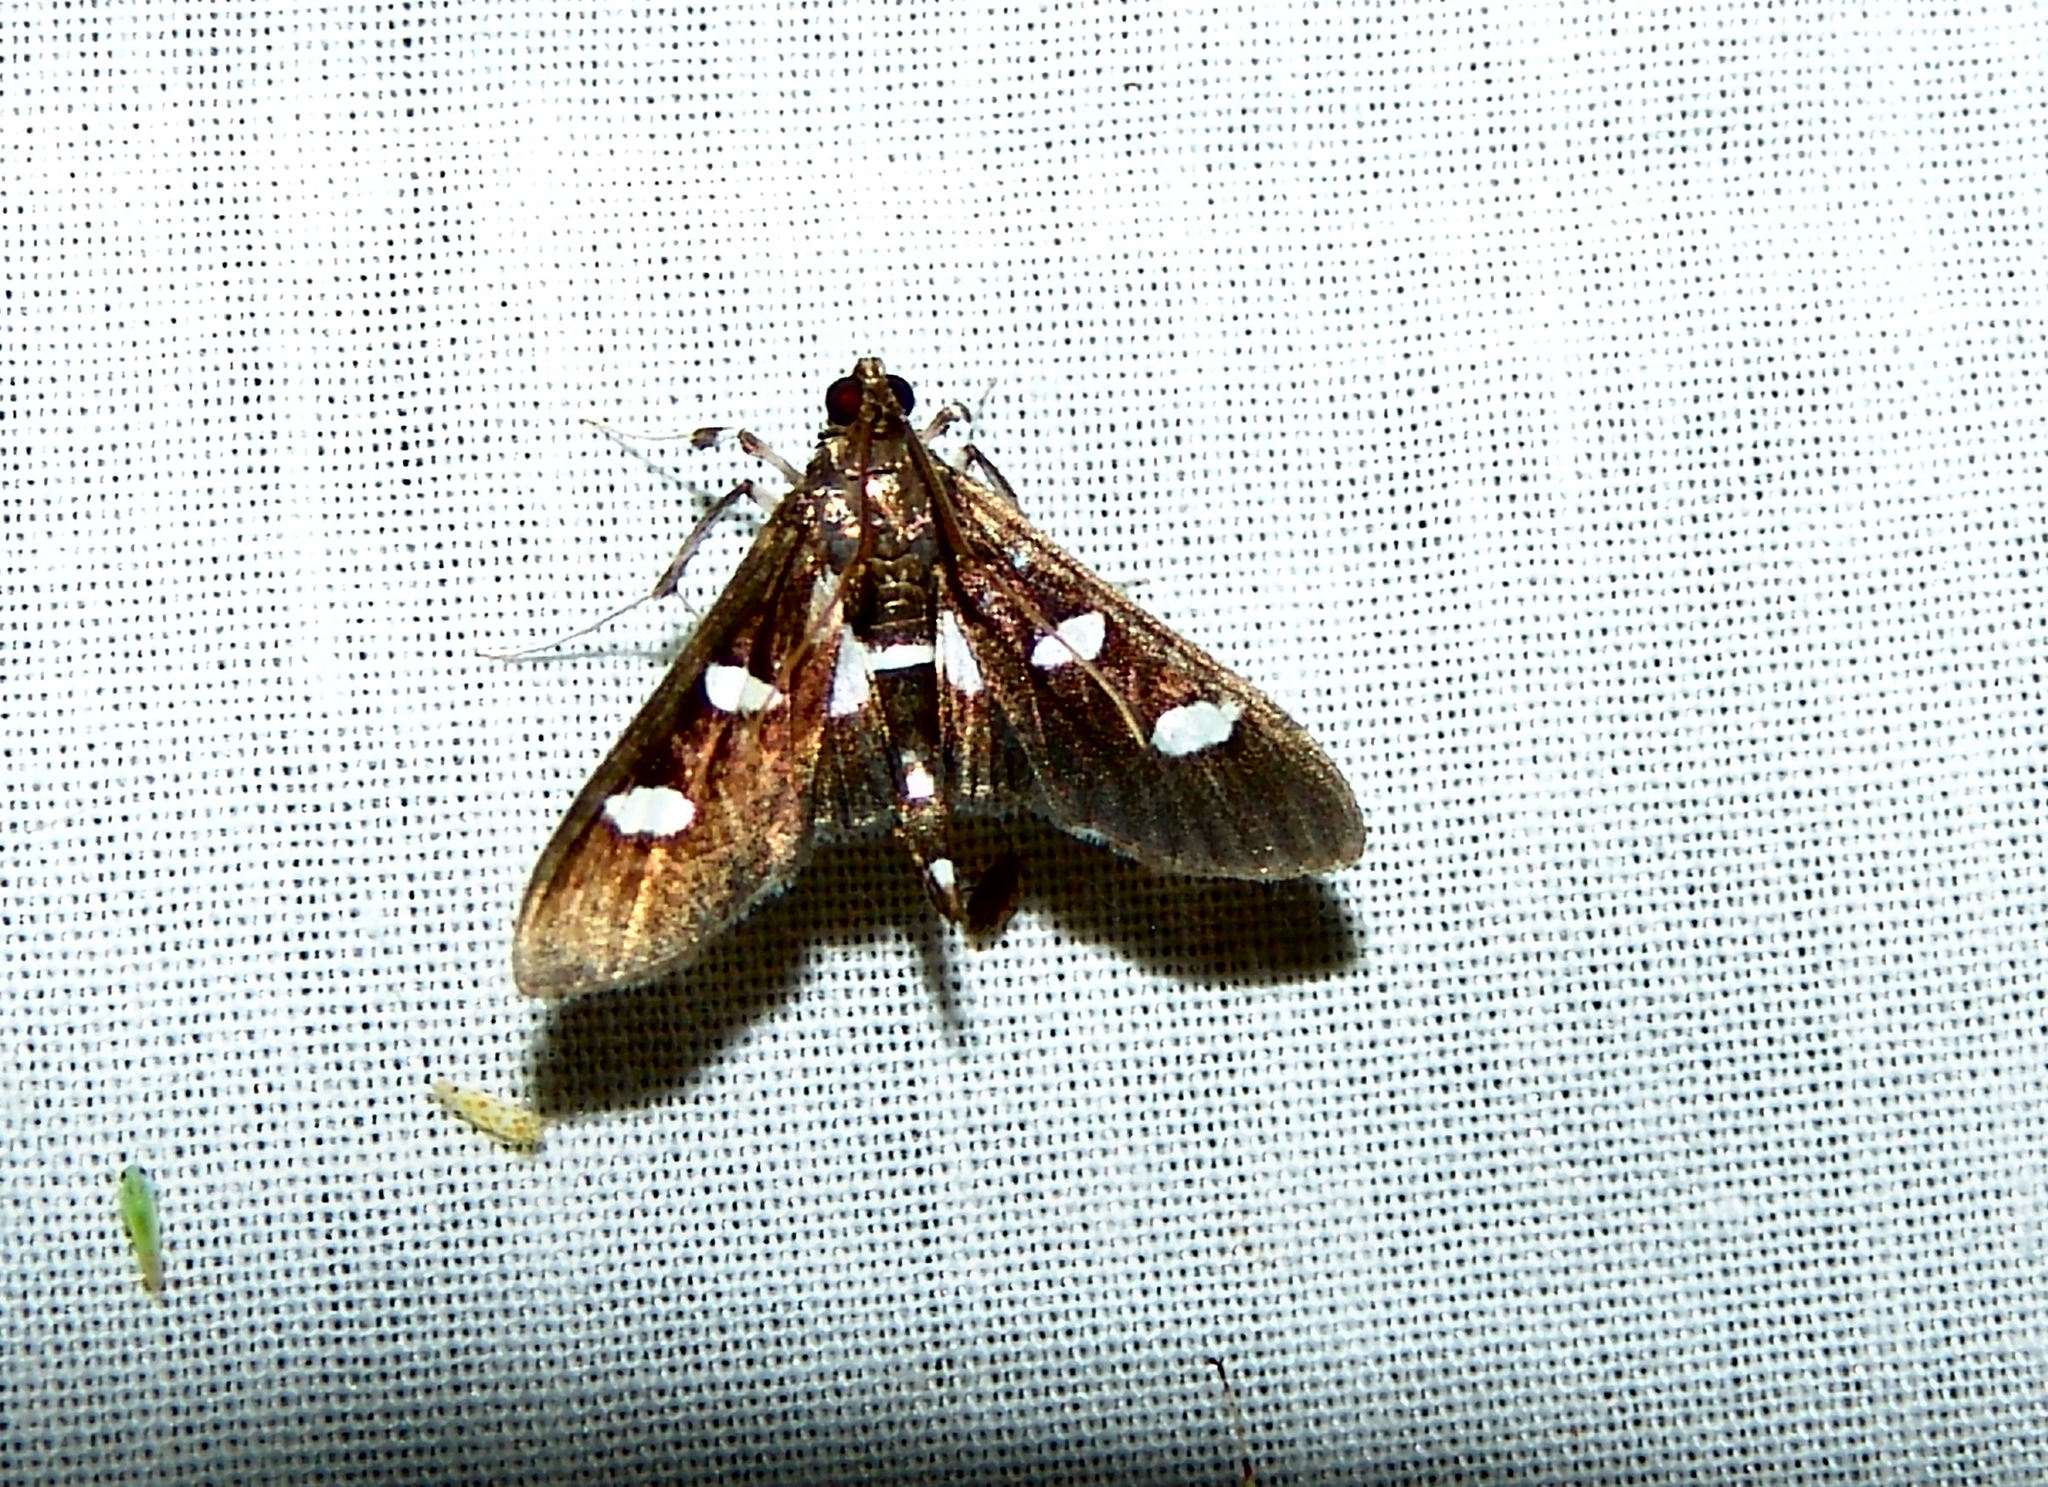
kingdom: Animalia
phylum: Arthropoda
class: Insecta
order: Lepidoptera
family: Crambidae
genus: Desmia
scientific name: Desmia
